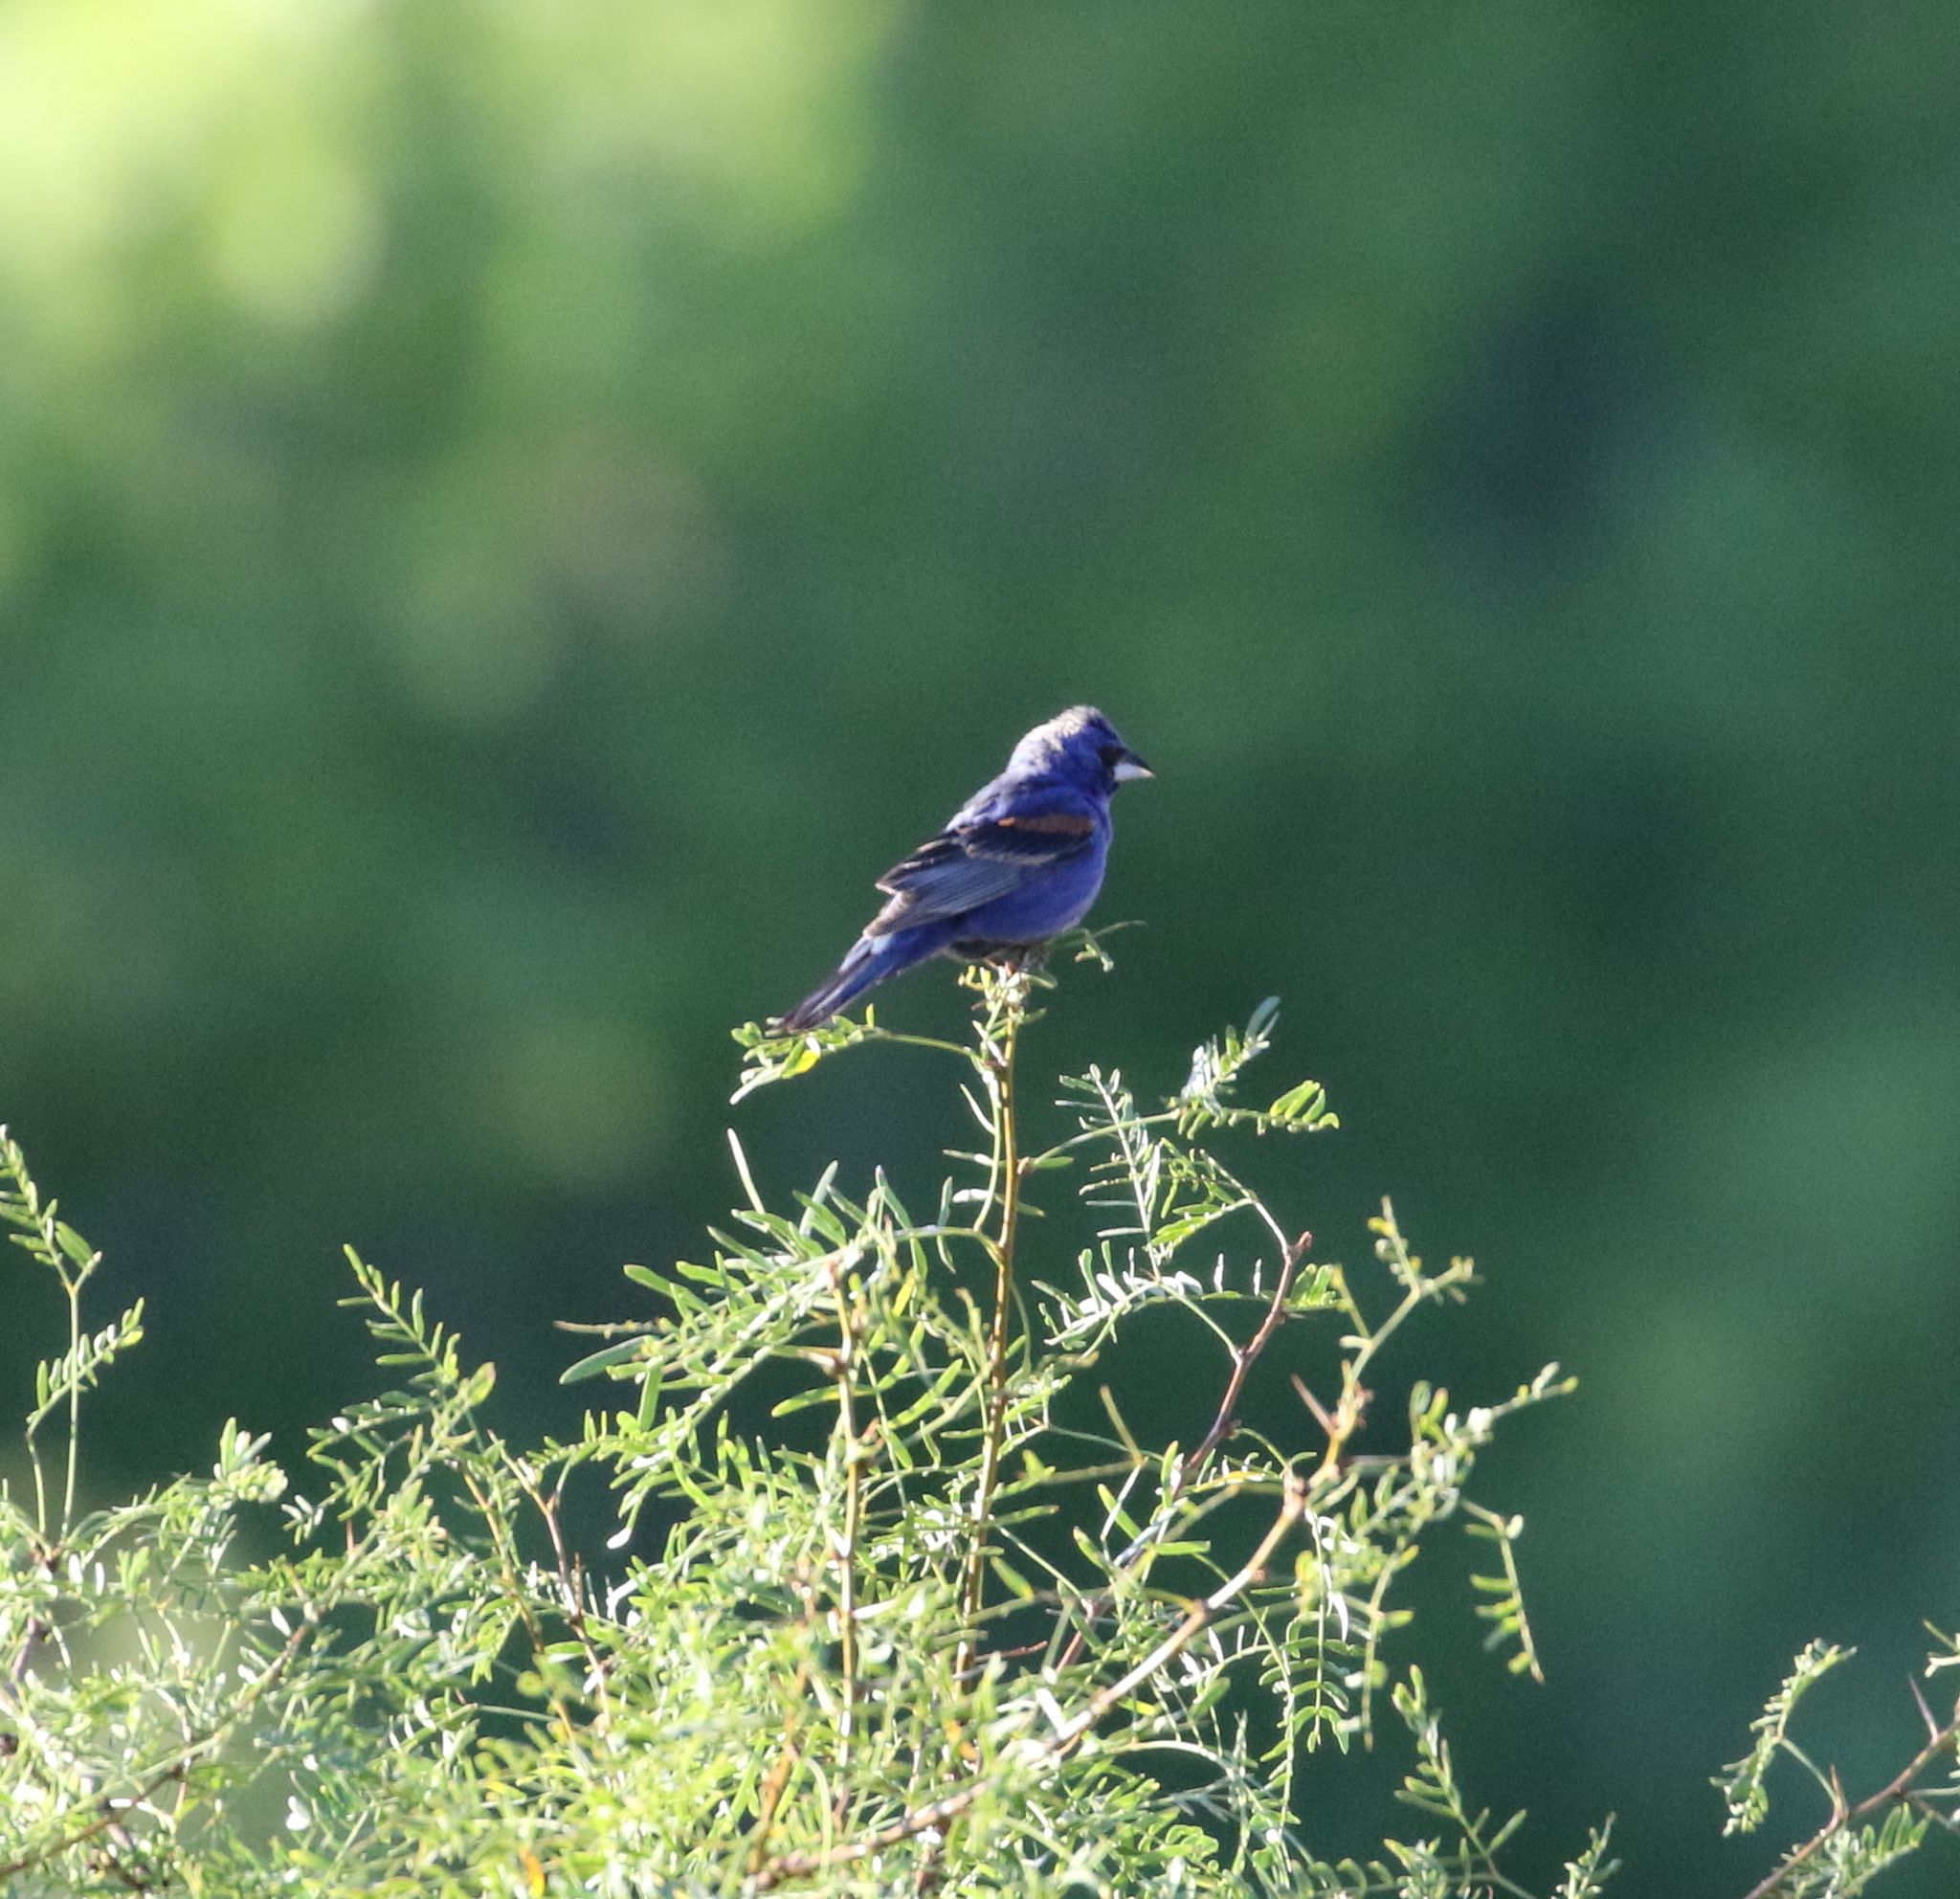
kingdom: Animalia
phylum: Chordata
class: Aves
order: Passeriformes
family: Cardinalidae
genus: Passerina
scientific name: Passerina caerulea
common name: Blue grosbeak
